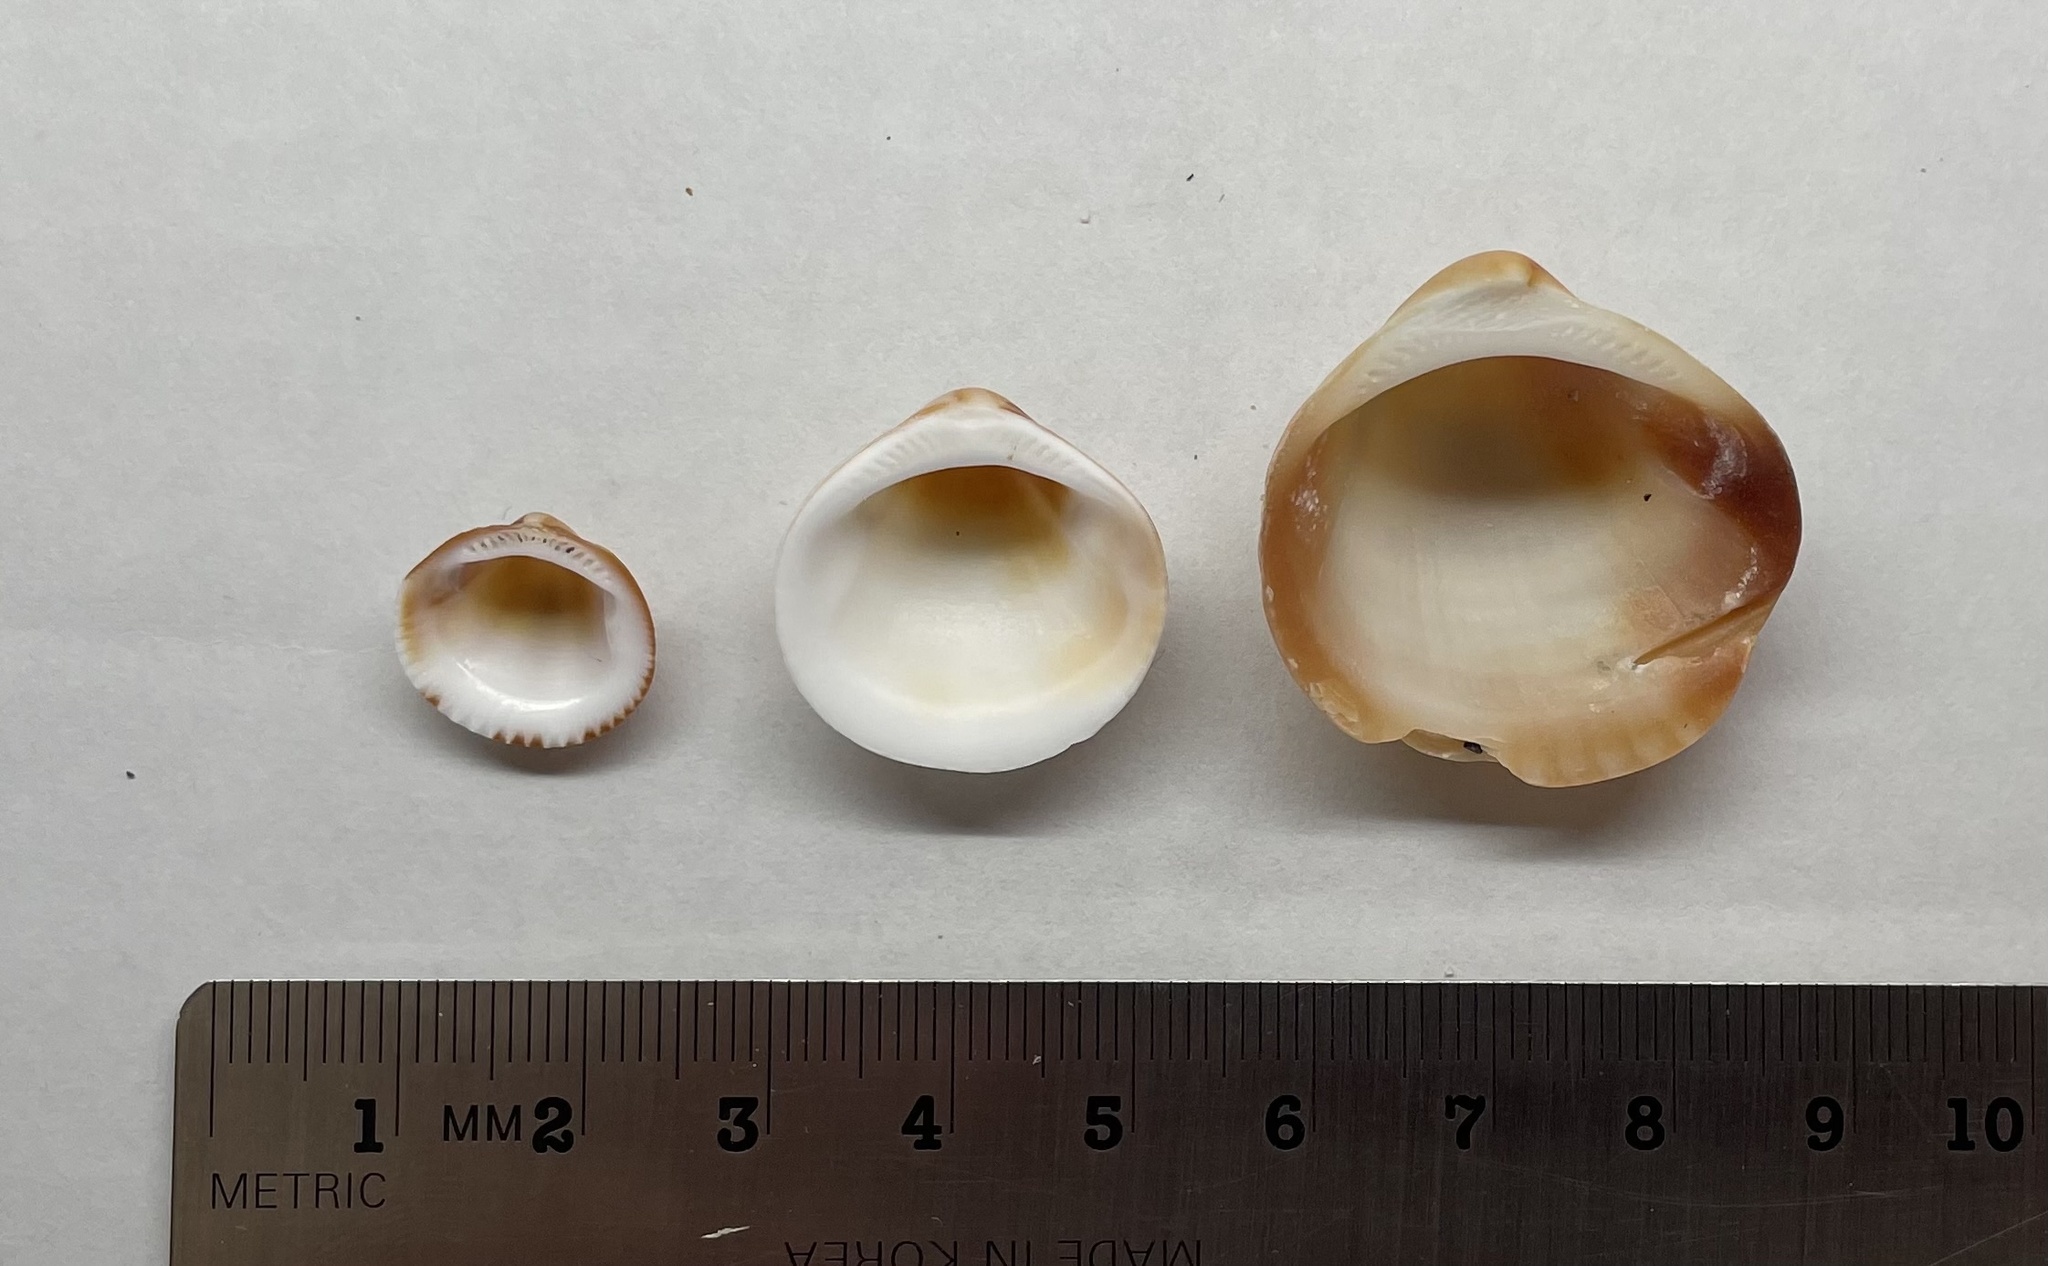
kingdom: Animalia
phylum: Mollusca
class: Bivalvia
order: Arcida
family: Glycymerididae
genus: Glycymeris
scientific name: Glycymeris spectralis
